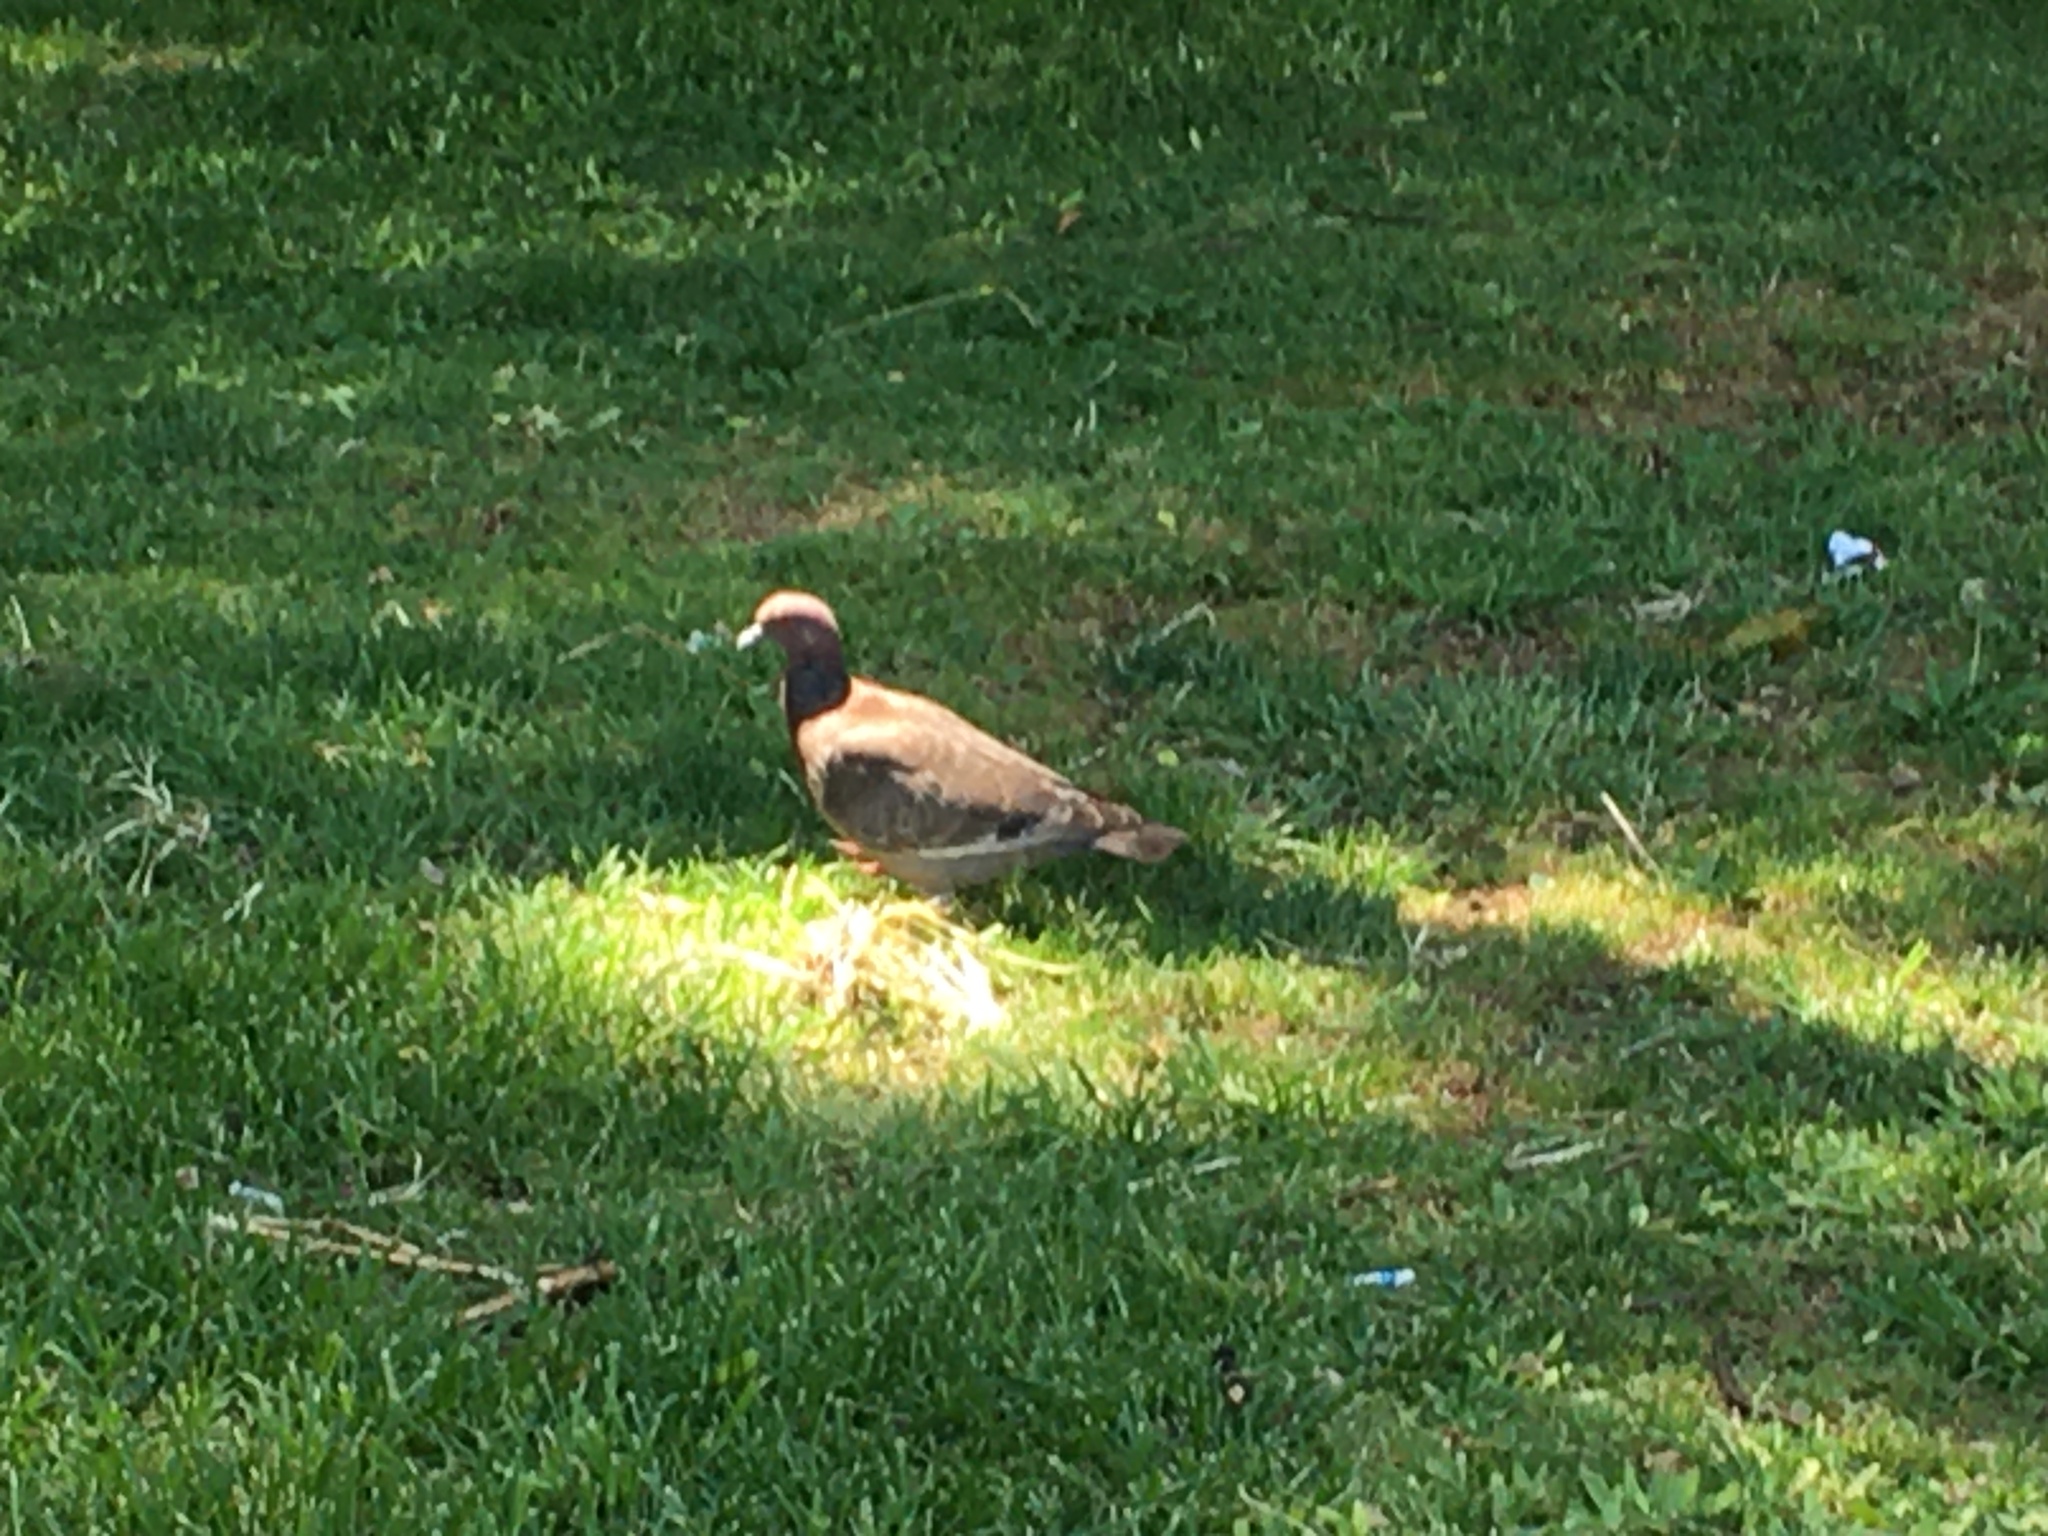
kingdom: Animalia
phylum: Chordata
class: Aves
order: Columbiformes
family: Columbidae
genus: Patagioenas
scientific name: Patagioenas picazuro
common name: Picazuro pigeon
